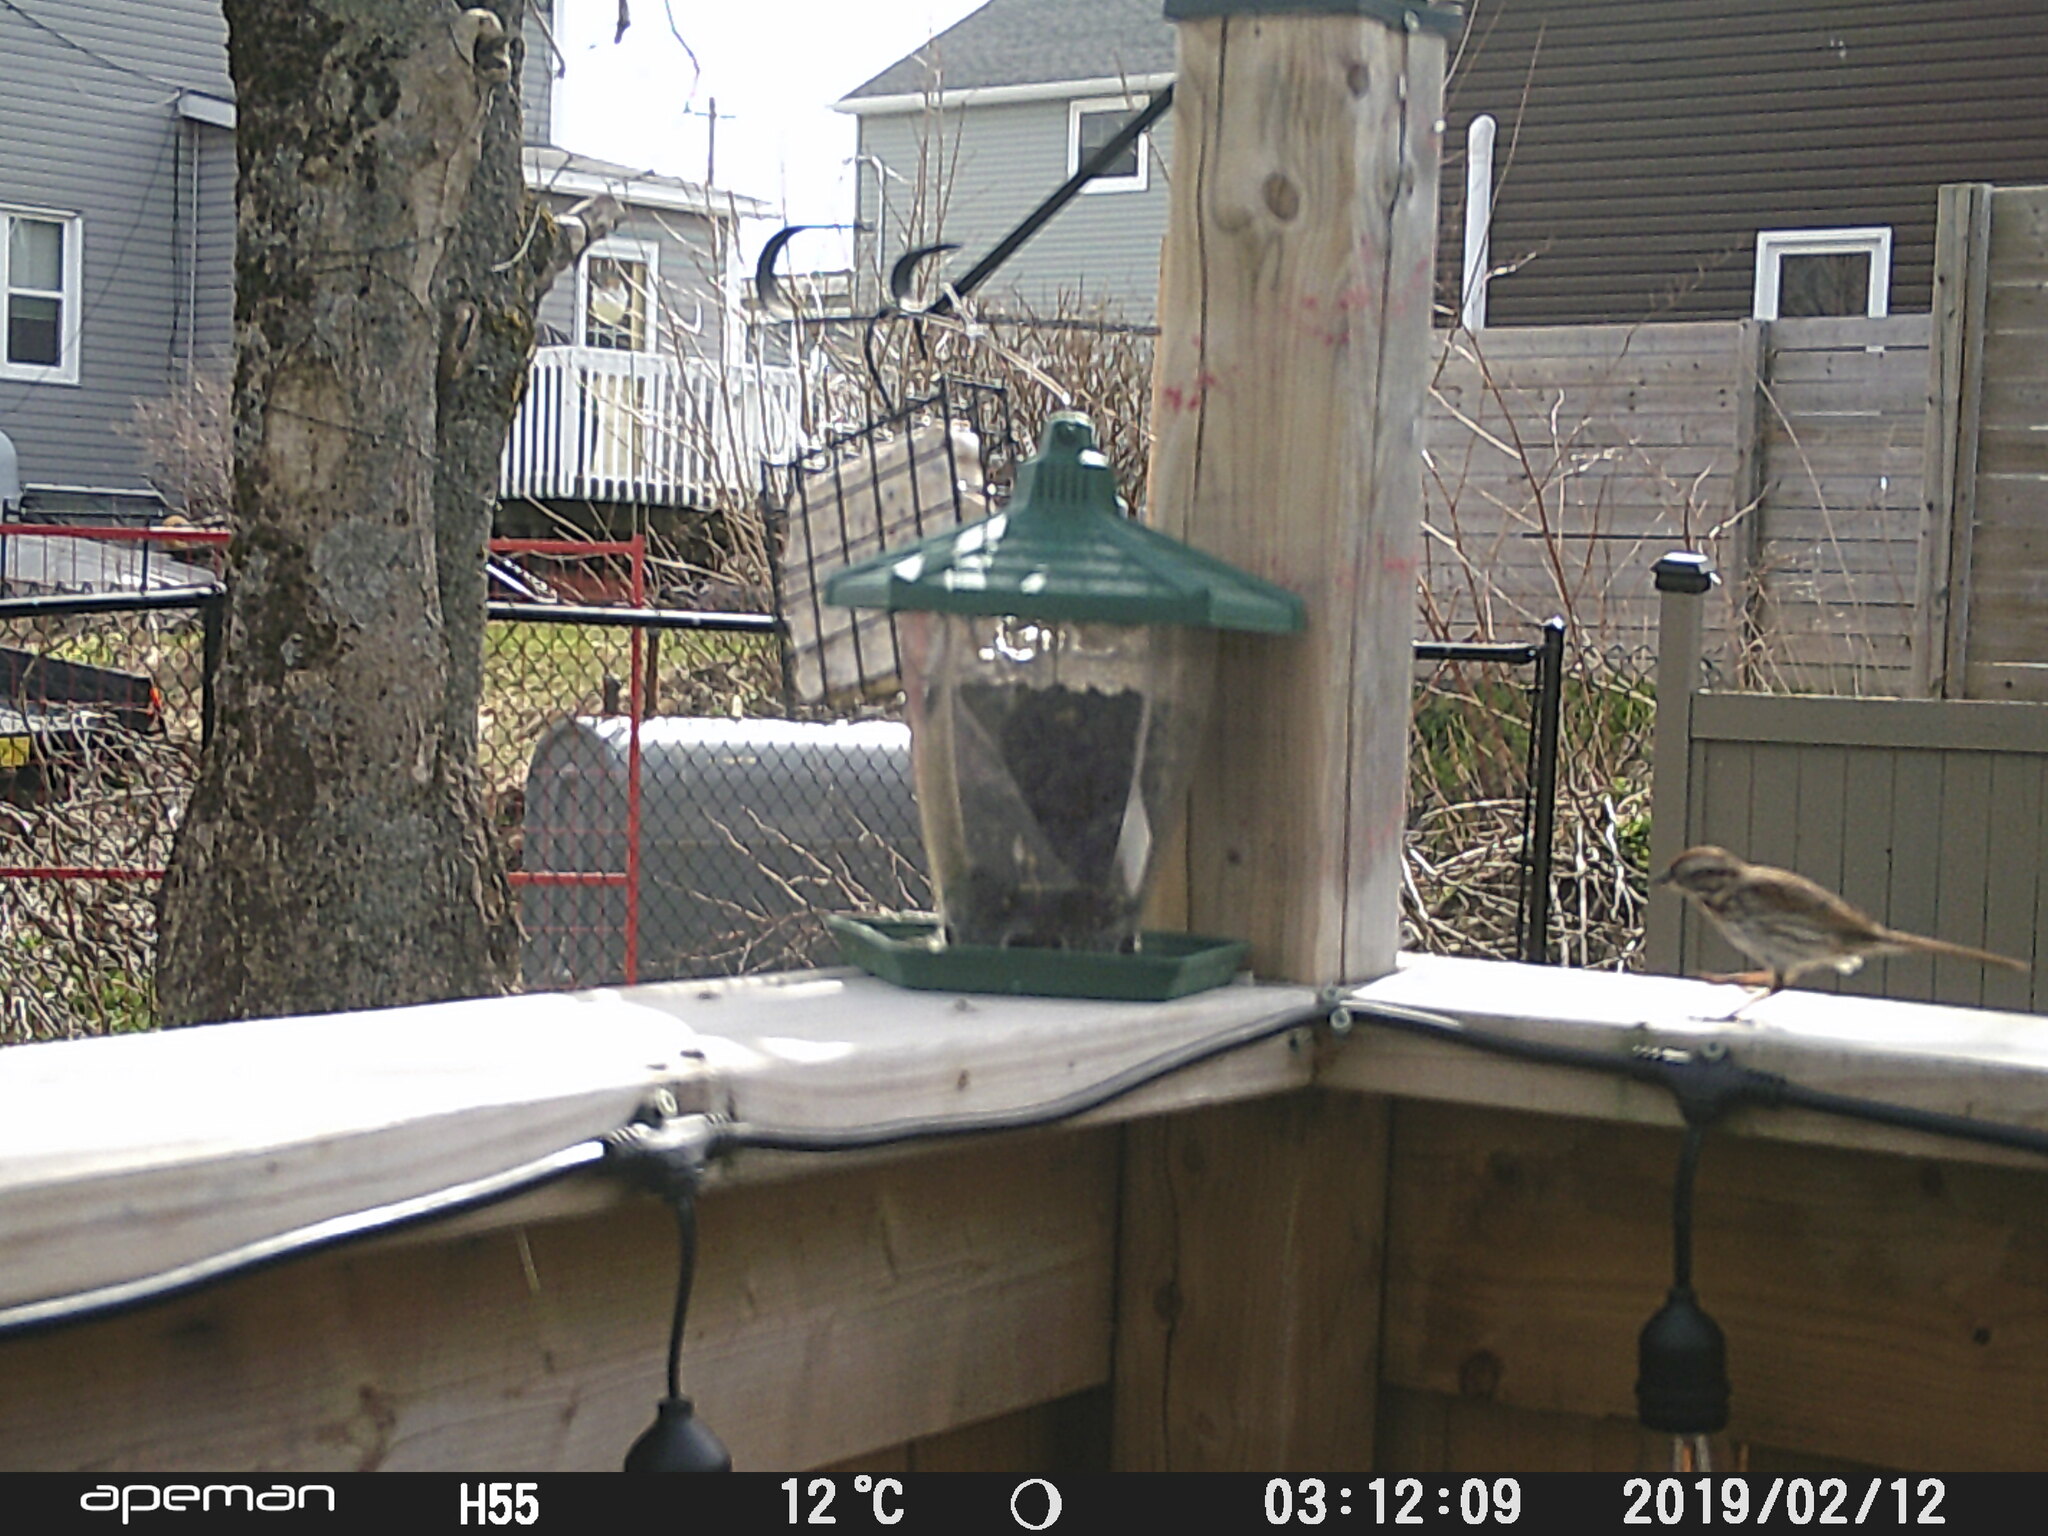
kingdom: Animalia
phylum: Chordata
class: Aves
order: Passeriformes
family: Passerellidae
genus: Melospiza
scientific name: Melospiza melodia
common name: Song sparrow
